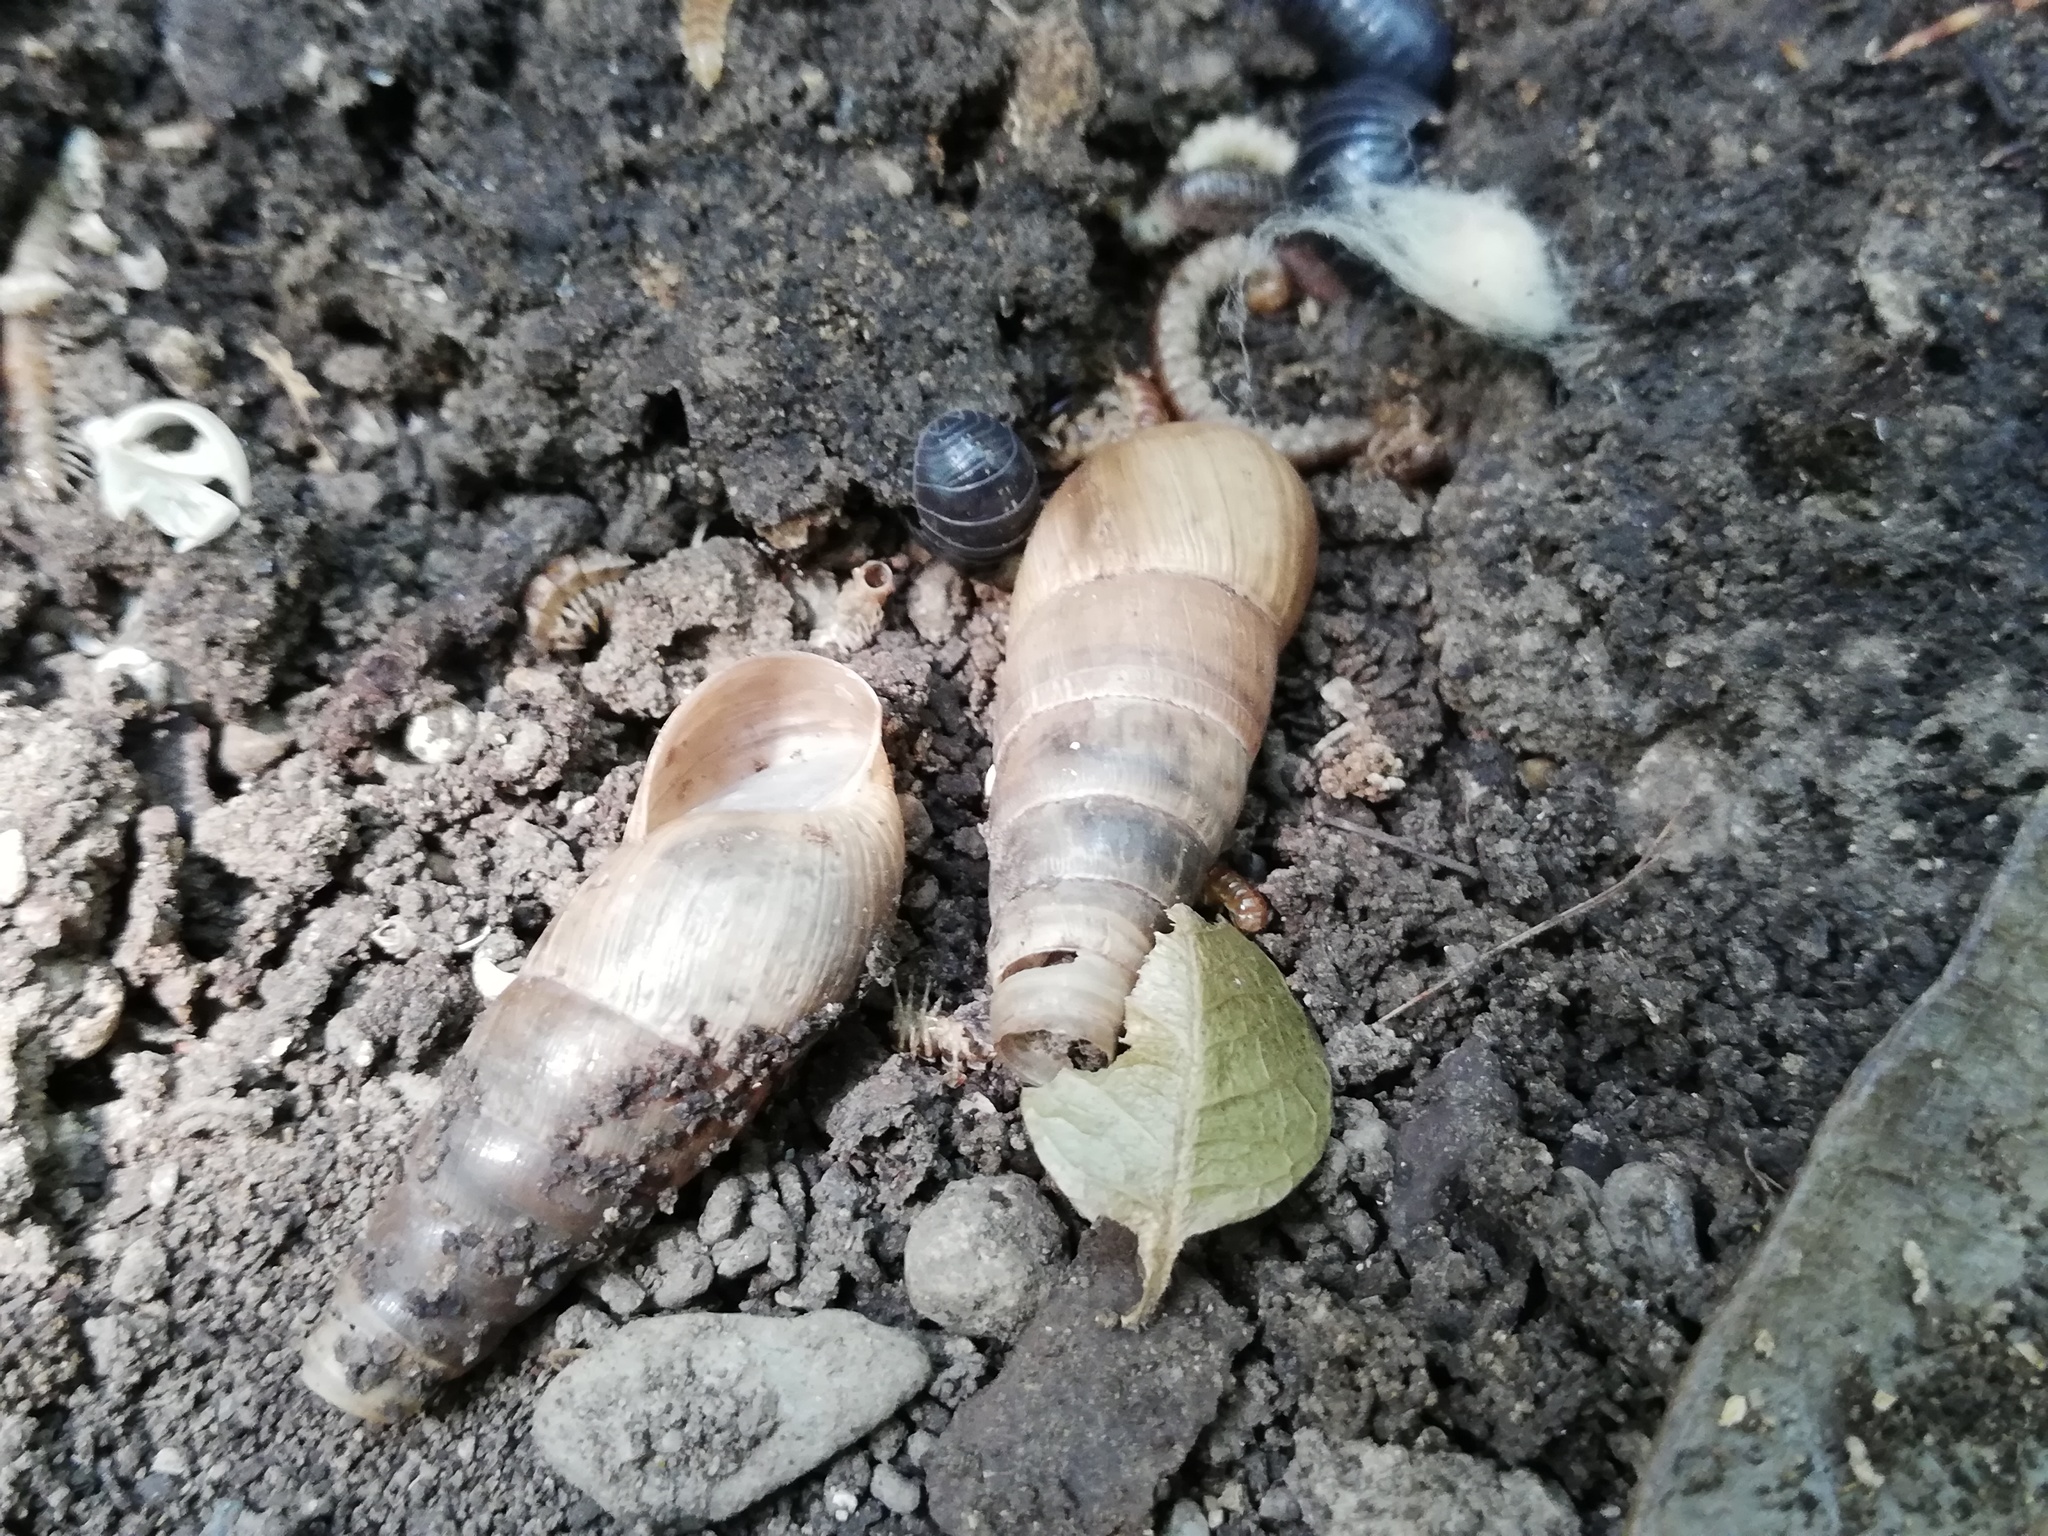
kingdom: Animalia
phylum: Mollusca
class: Gastropoda
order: Stylommatophora
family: Achatinidae
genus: Rumina
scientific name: Rumina decollata
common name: Decollate snail
